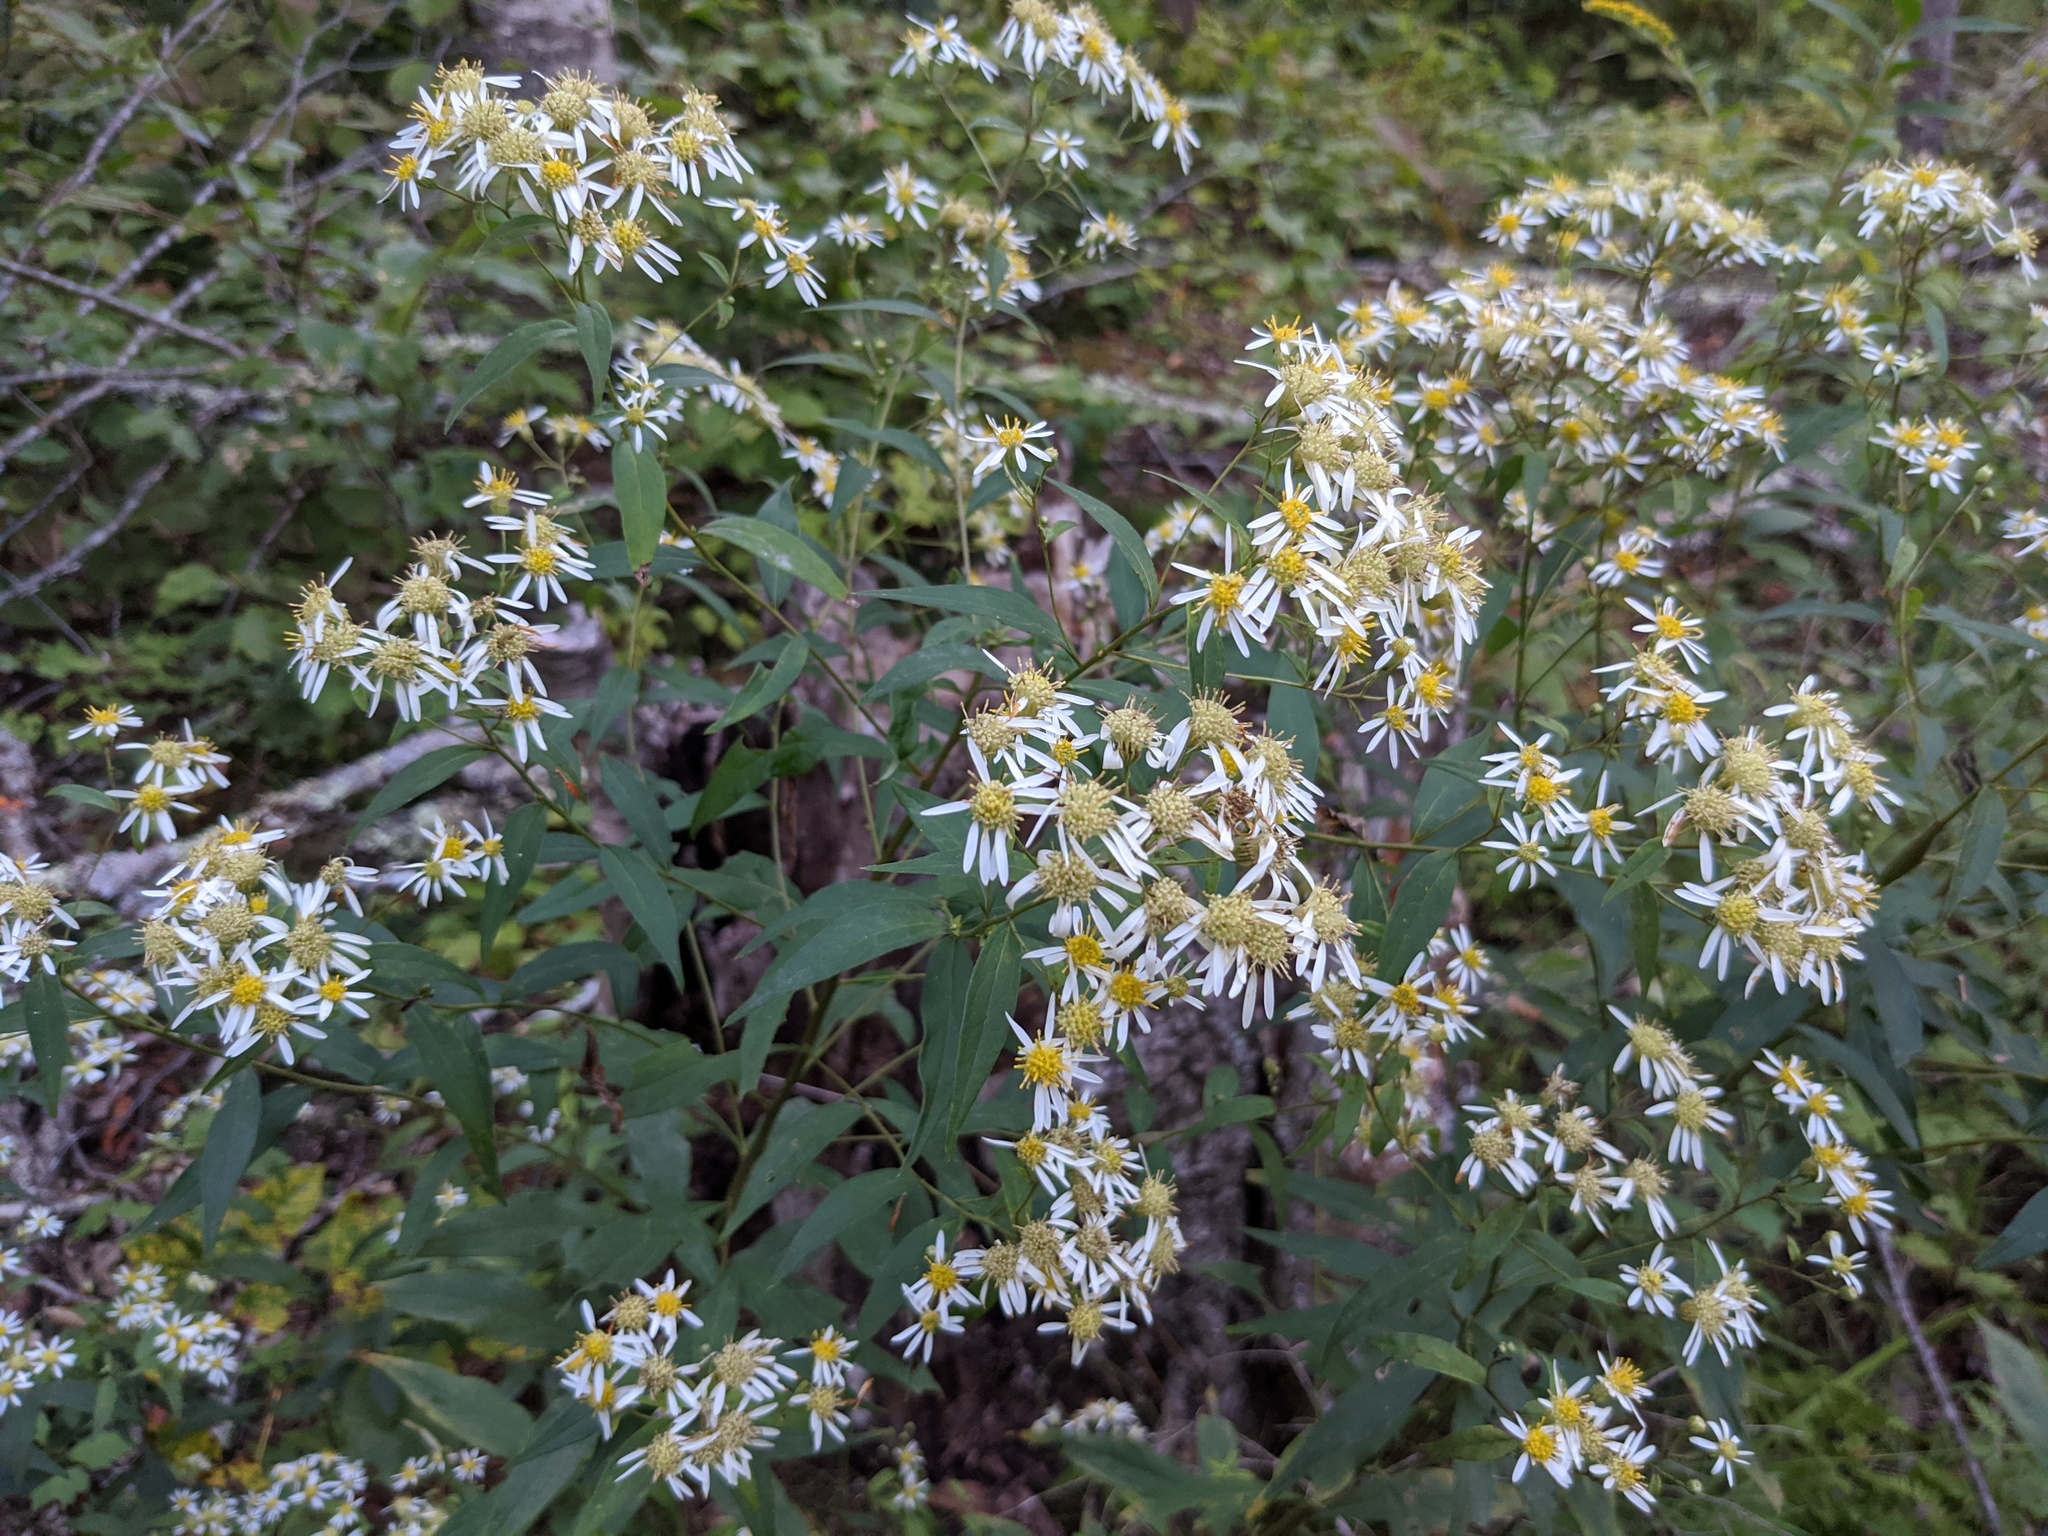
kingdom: Plantae
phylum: Tracheophyta
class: Magnoliopsida
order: Asterales
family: Asteraceae
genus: Doellingeria
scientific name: Doellingeria umbellata
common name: Flat-top white aster
